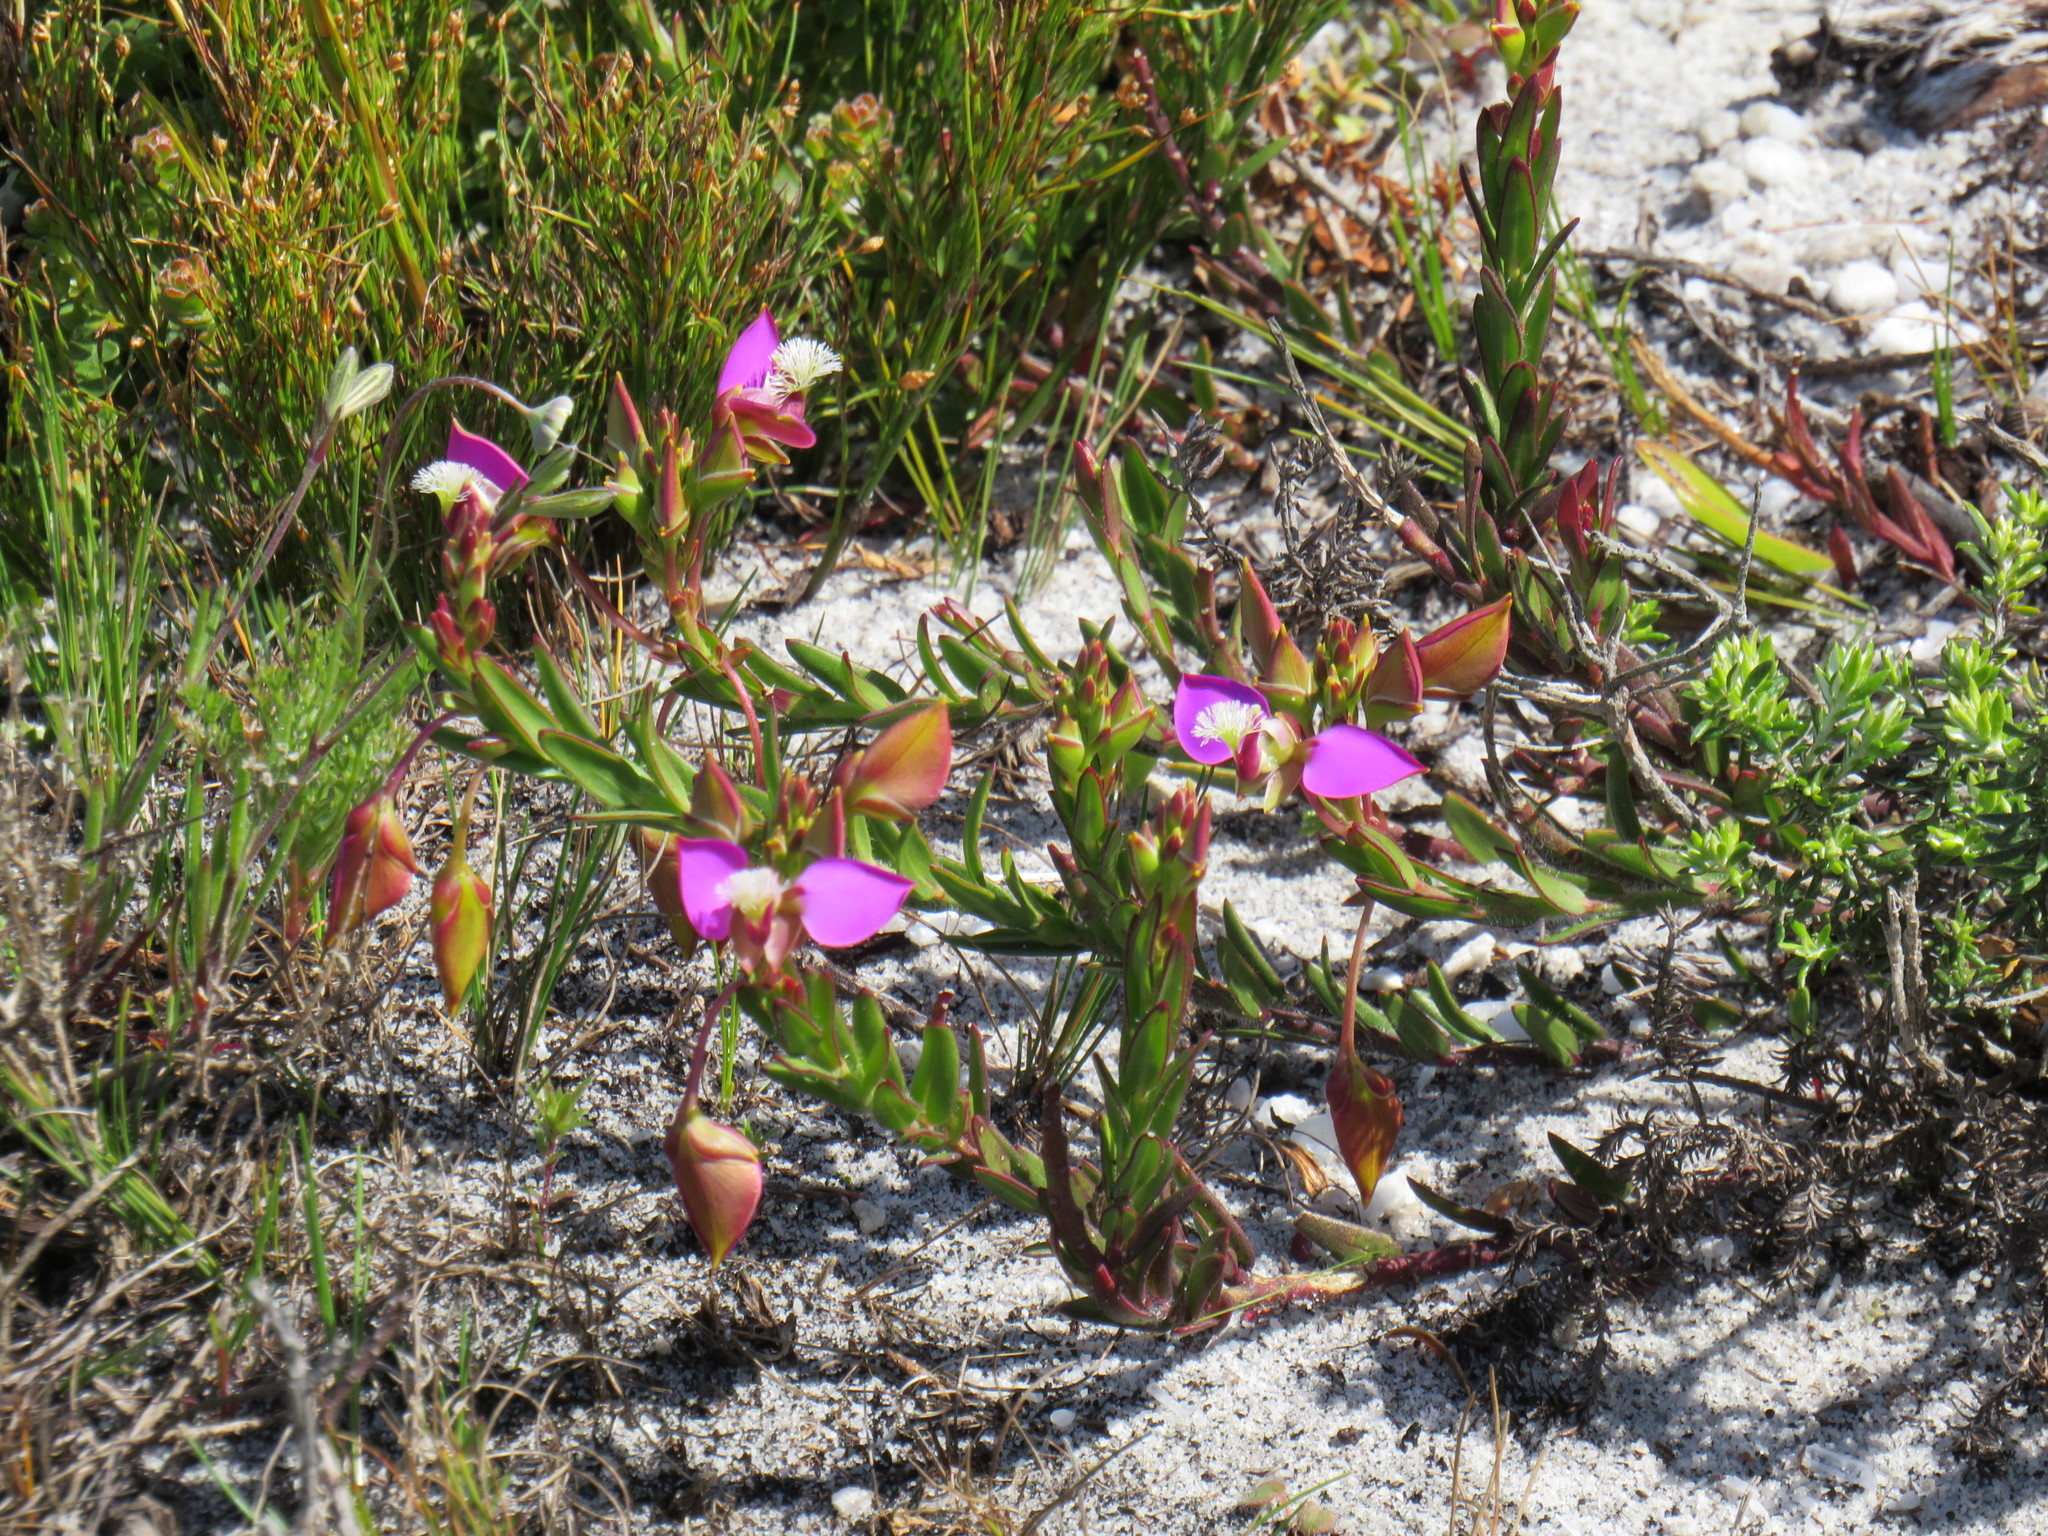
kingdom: Plantae
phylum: Tracheophyta
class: Magnoliopsida
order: Fabales
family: Polygalaceae
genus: Polygala
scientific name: Polygala bracteolata
